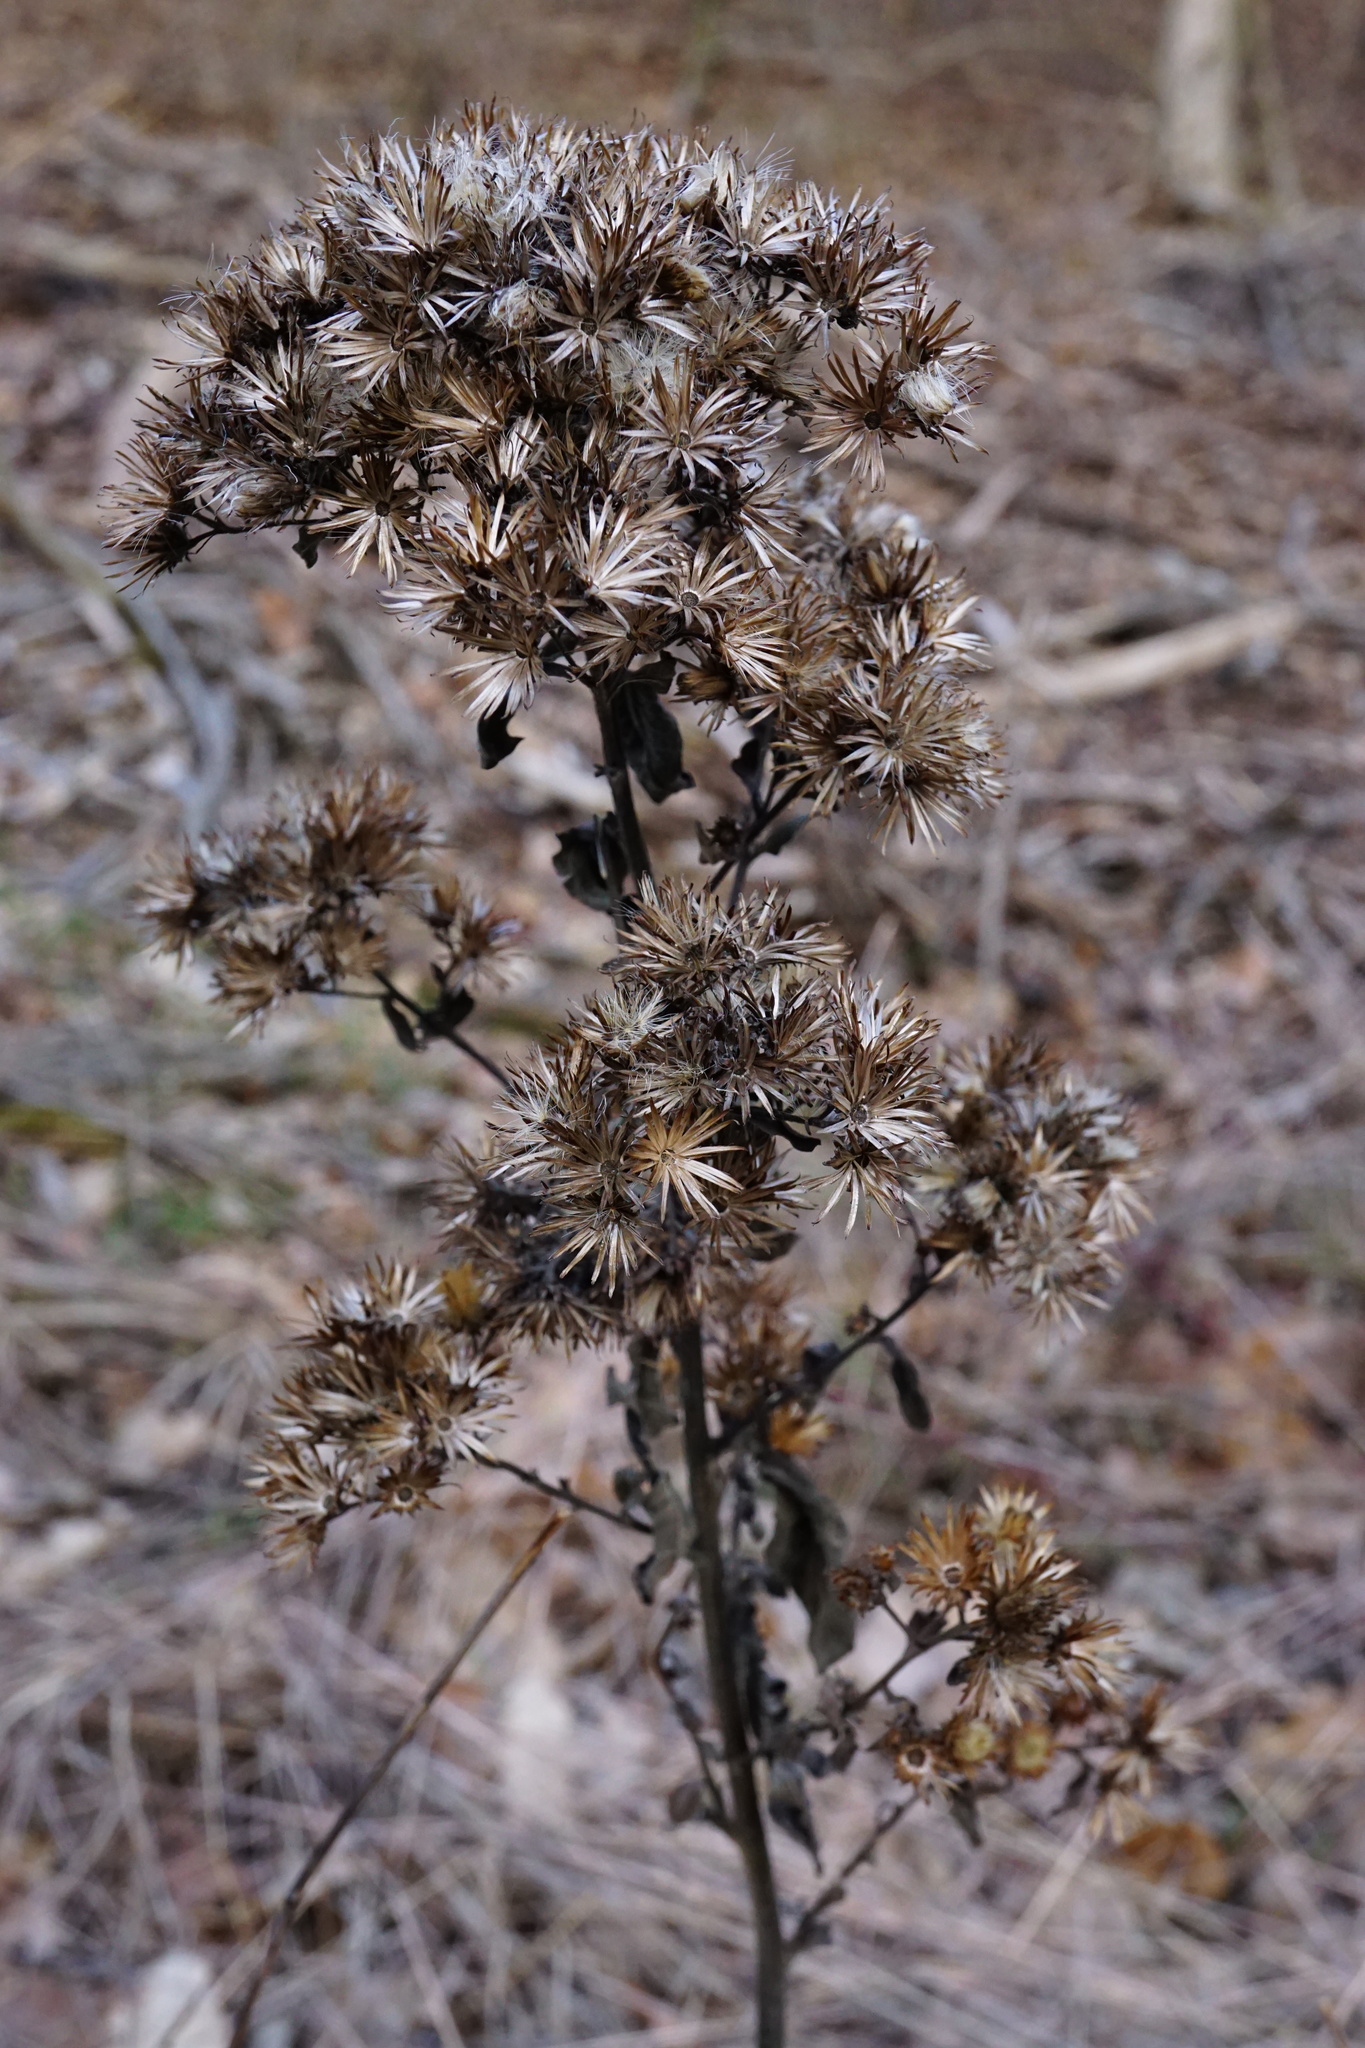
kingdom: Plantae
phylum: Tracheophyta
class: Magnoliopsida
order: Asterales
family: Asteraceae
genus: Pentanema
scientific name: Pentanema squarrosum
